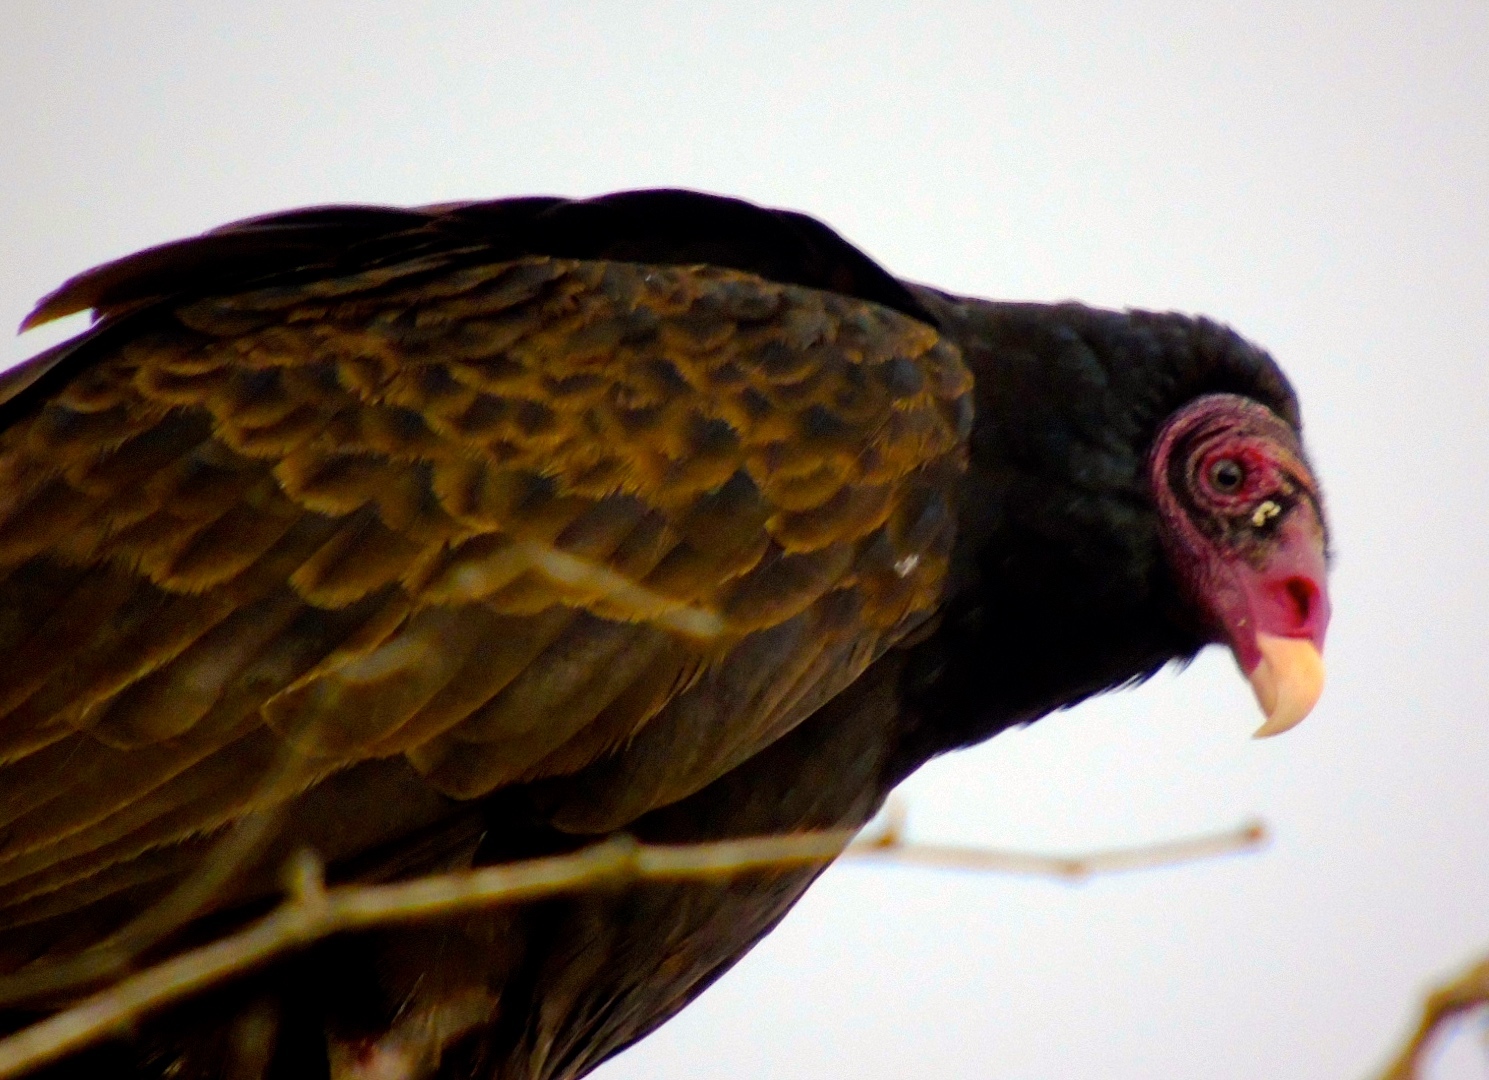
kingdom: Animalia
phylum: Chordata
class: Aves
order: Accipitriformes
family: Cathartidae
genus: Cathartes
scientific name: Cathartes aura
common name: Turkey vulture
